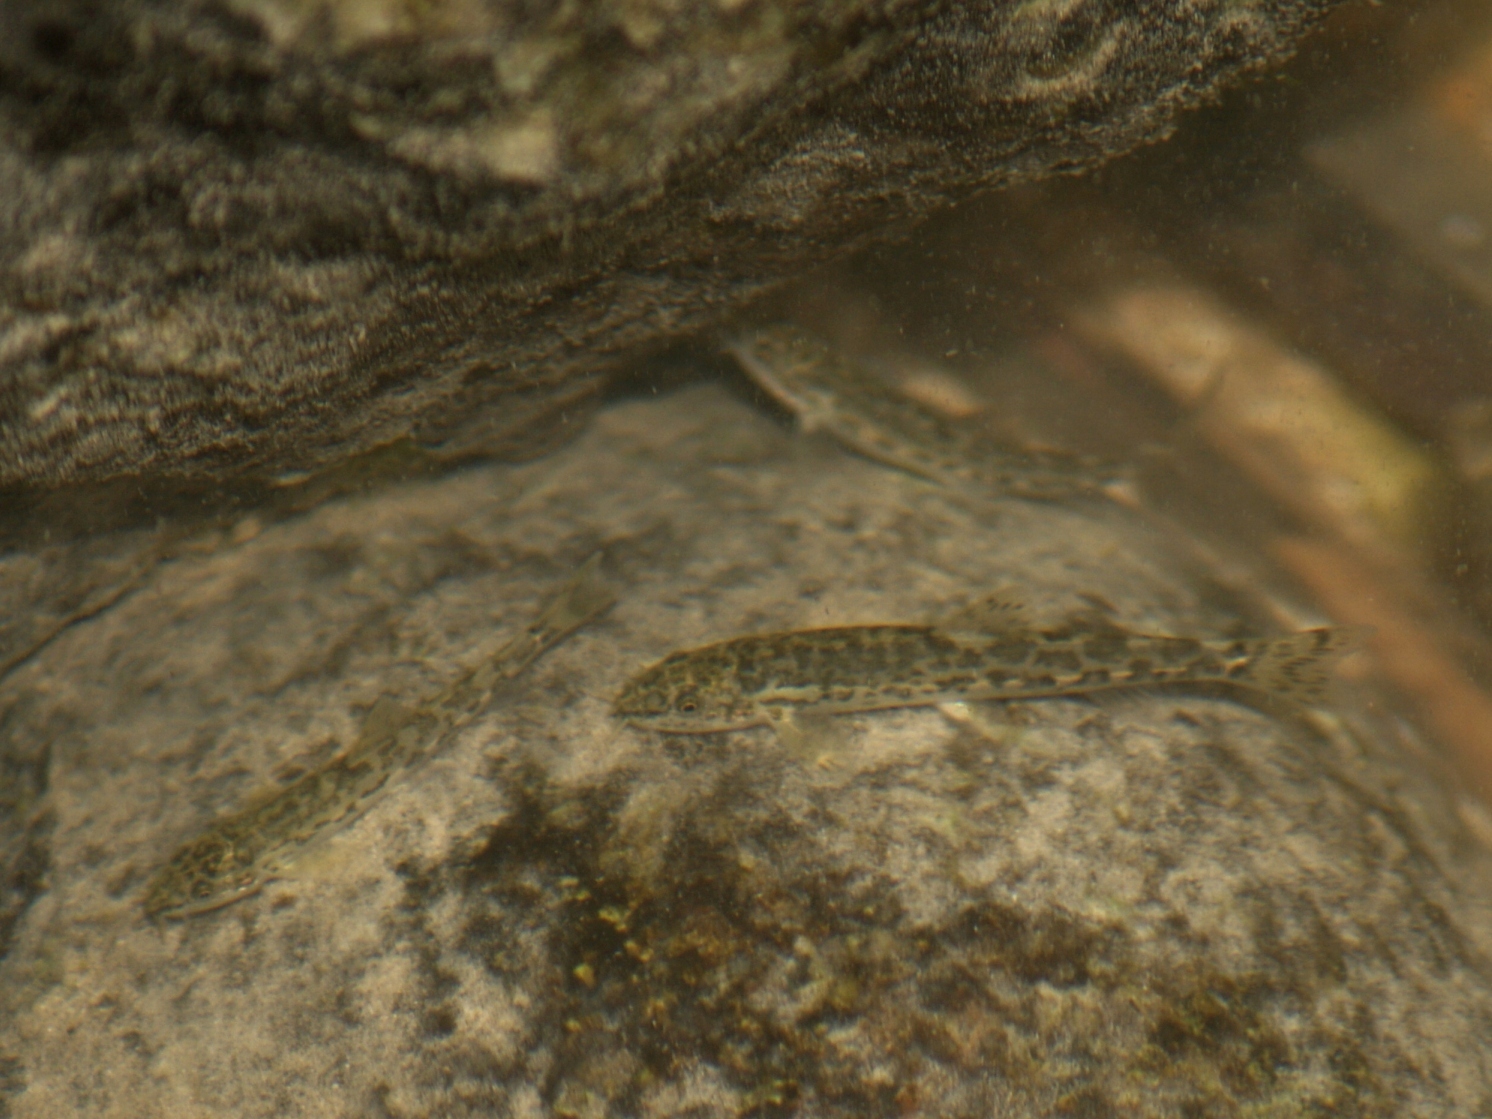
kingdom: Animalia
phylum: Chordata
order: Cypriniformes
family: Nemacheilidae
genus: Oxynoemacheilus
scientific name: Oxynoemacheilus insignis
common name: Palestine loach
